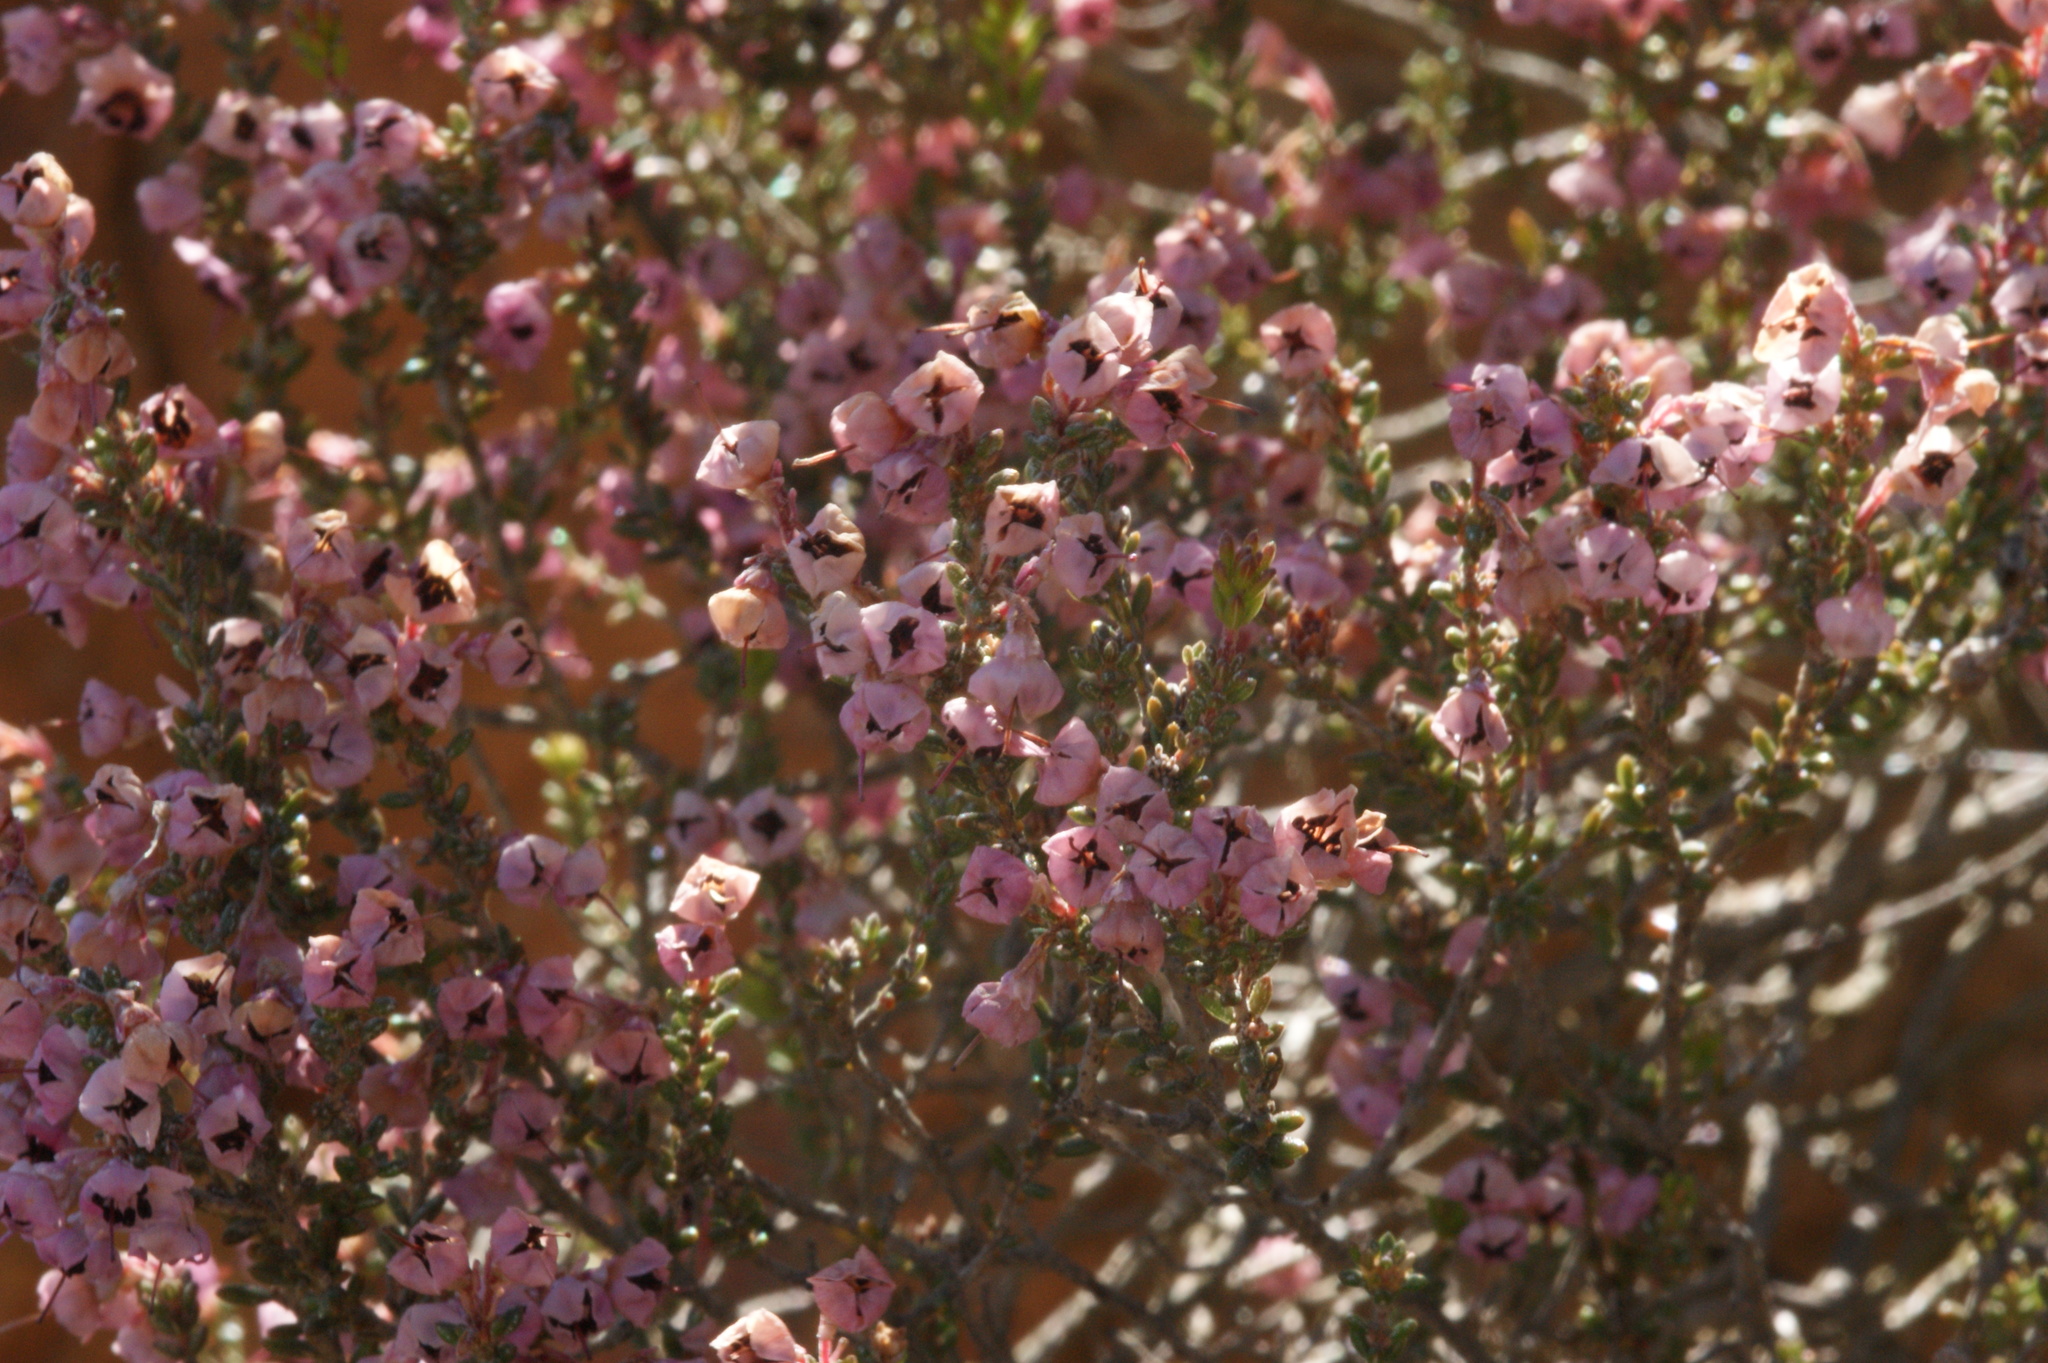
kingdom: Plantae
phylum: Tracheophyta
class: Magnoliopsida
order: Ericales
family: Ericaceae
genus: Erica
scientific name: Erica melanthera
